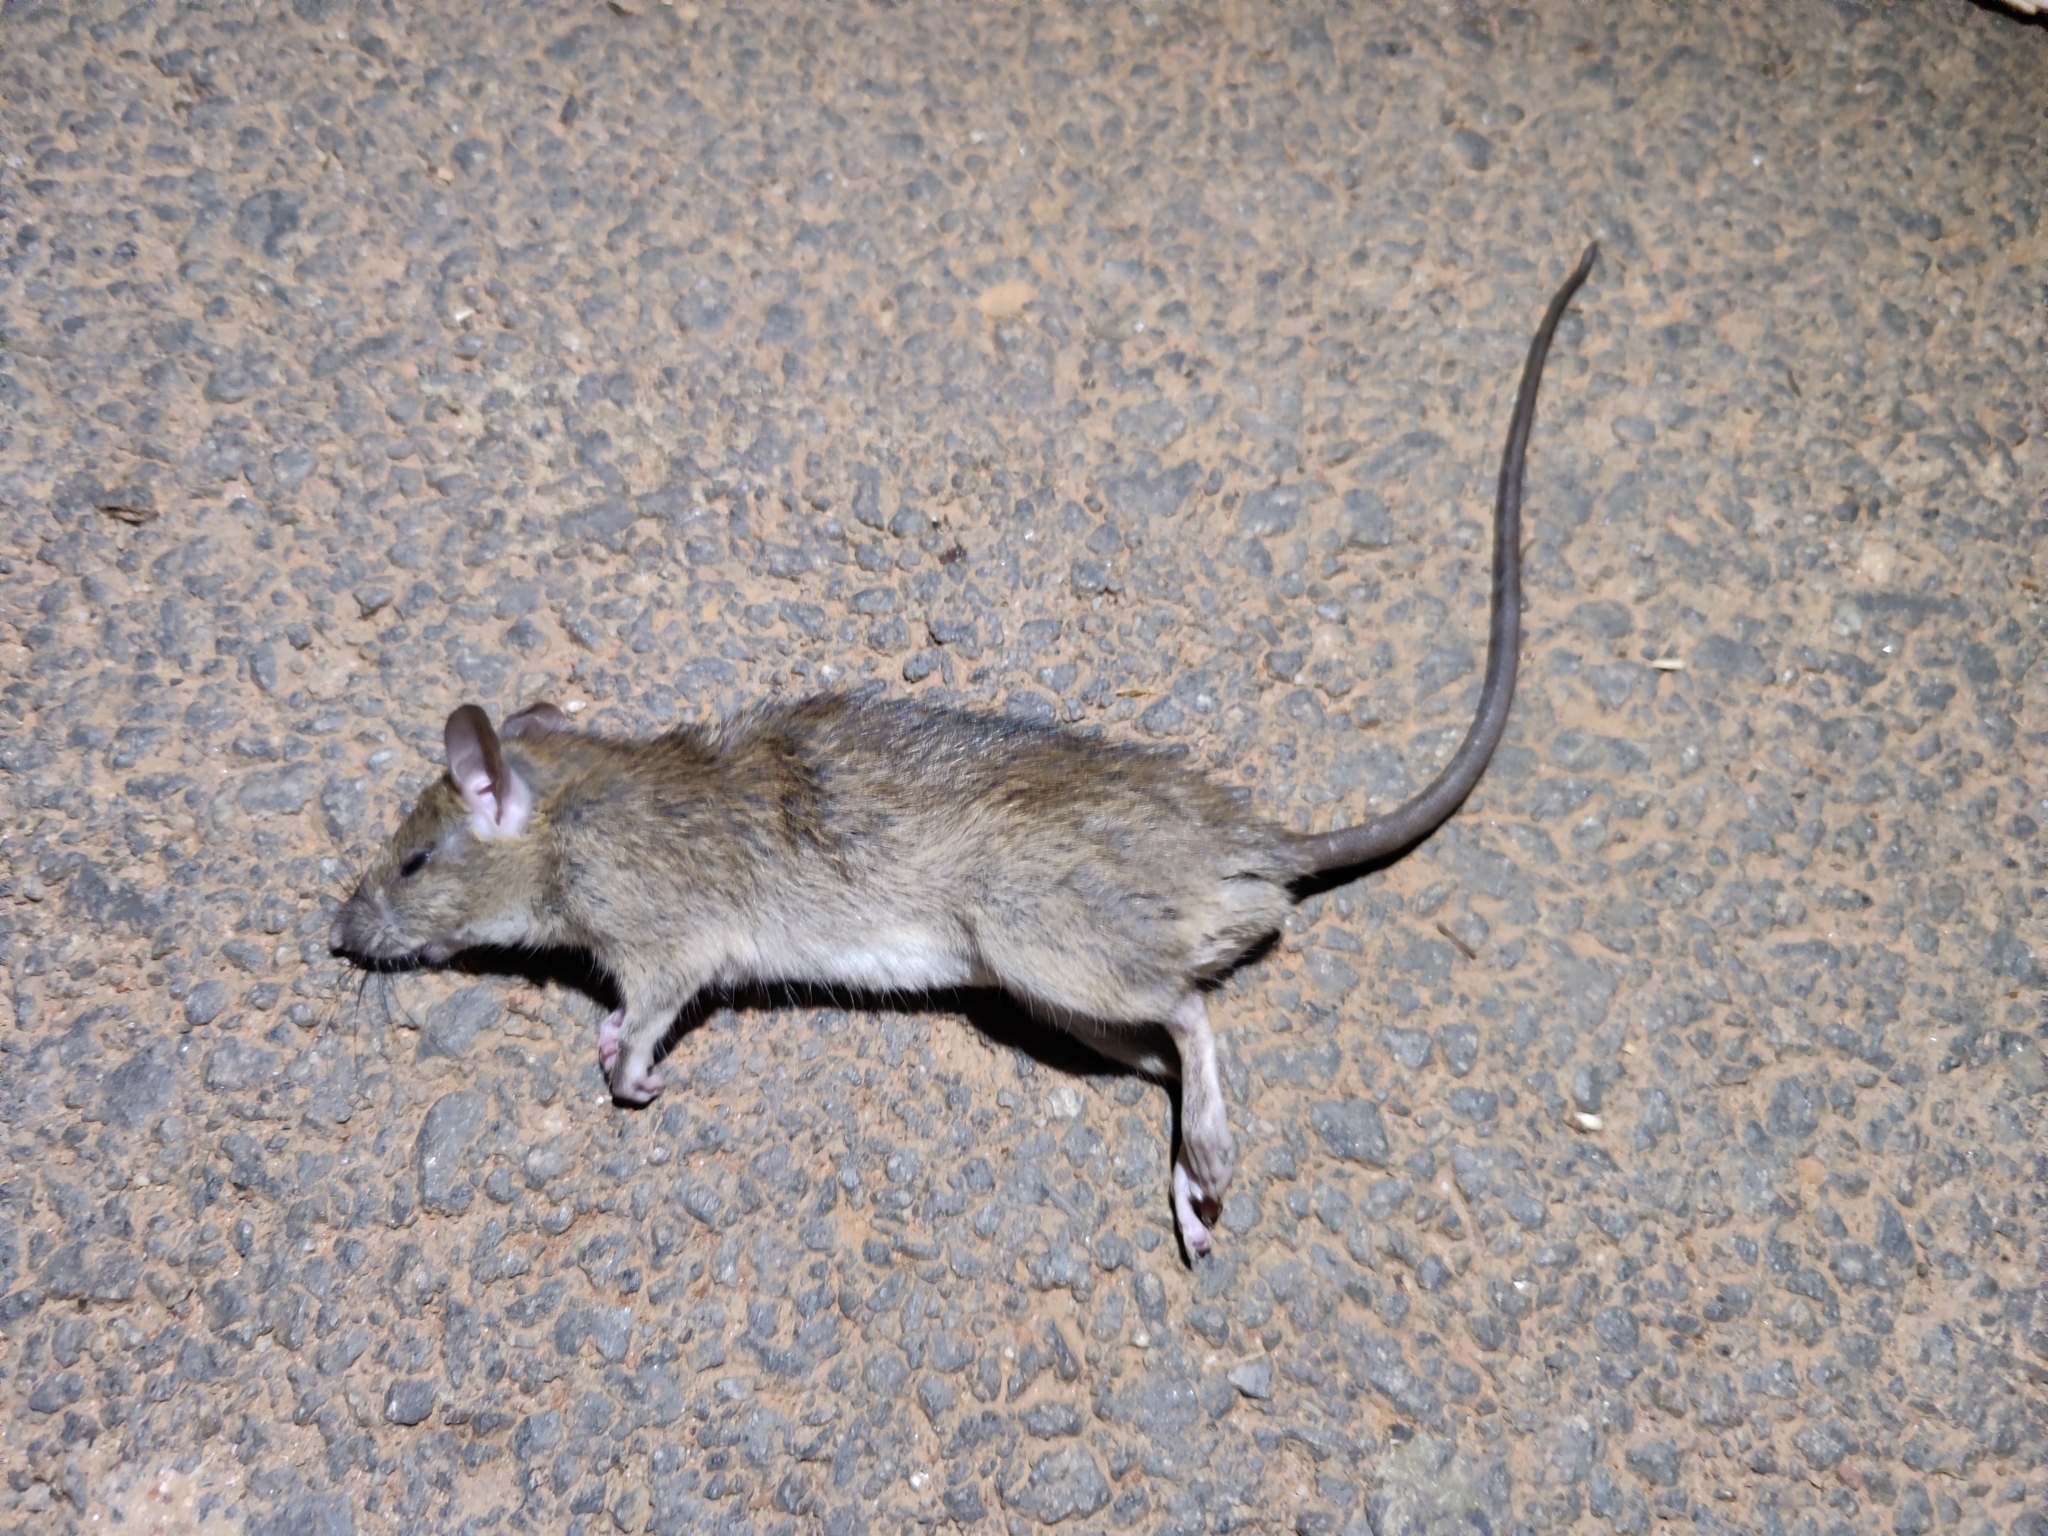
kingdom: Animalia
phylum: Chordata
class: Mammalia
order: Rodentia
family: Muridae
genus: Rattus
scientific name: Rattus rattus
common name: Black rat
